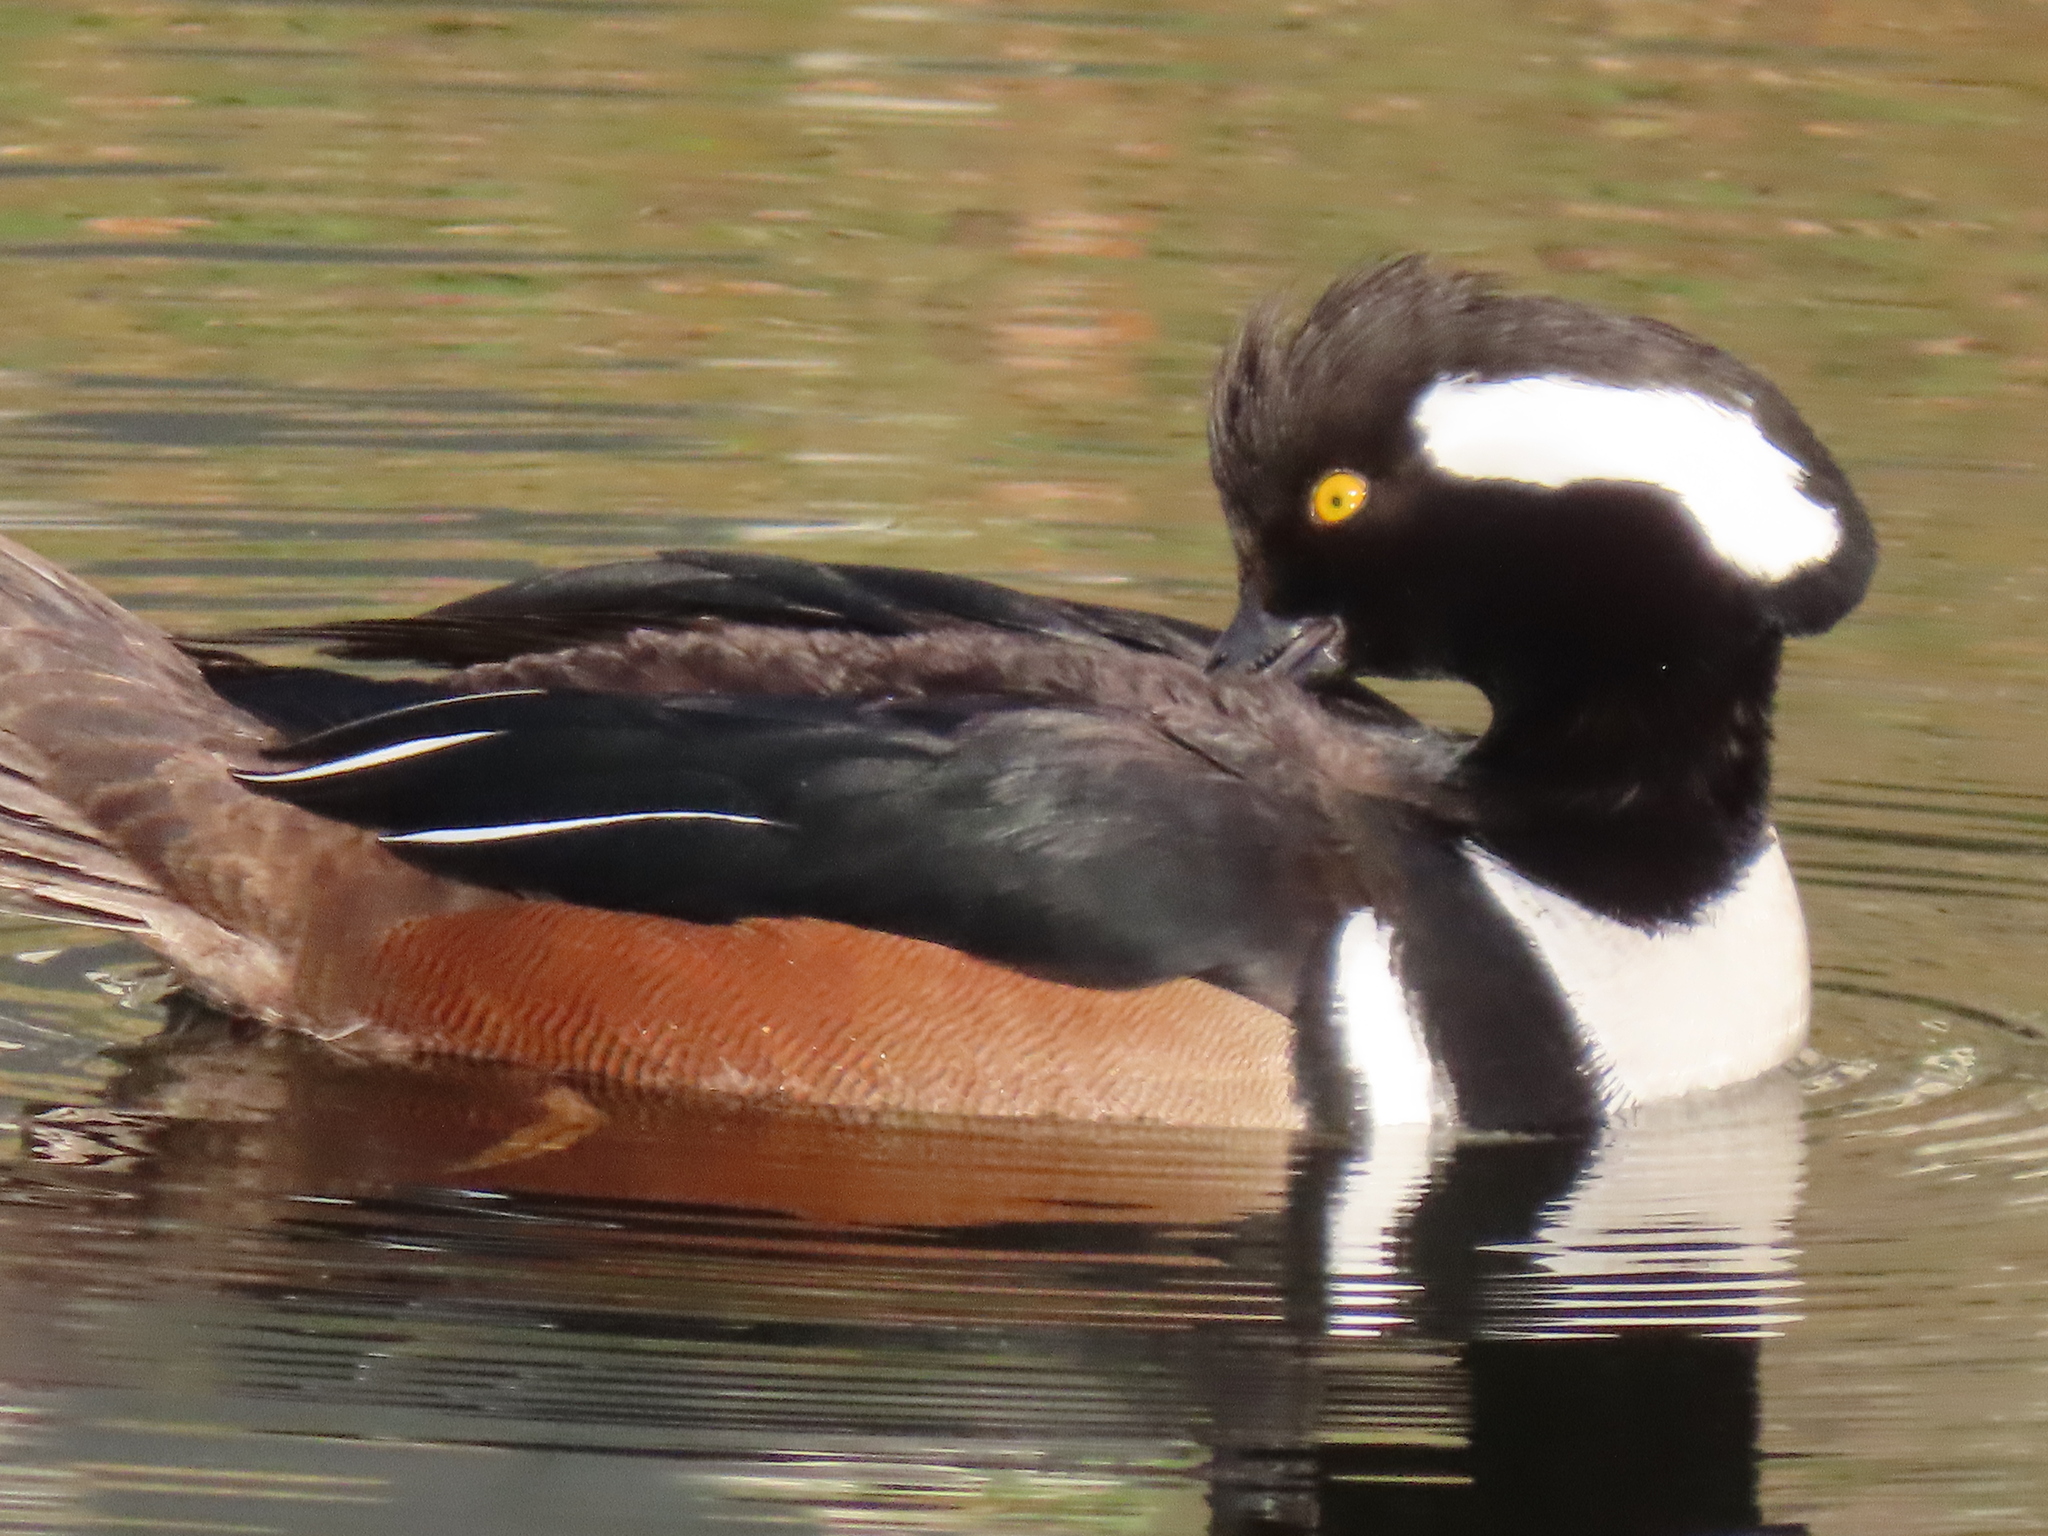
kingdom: Animalia
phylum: Chordata
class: Aves
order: Anseriformes
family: Anatidae
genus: Lophodytes
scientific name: Lophodytes cucullatus
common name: Hooded merganser
